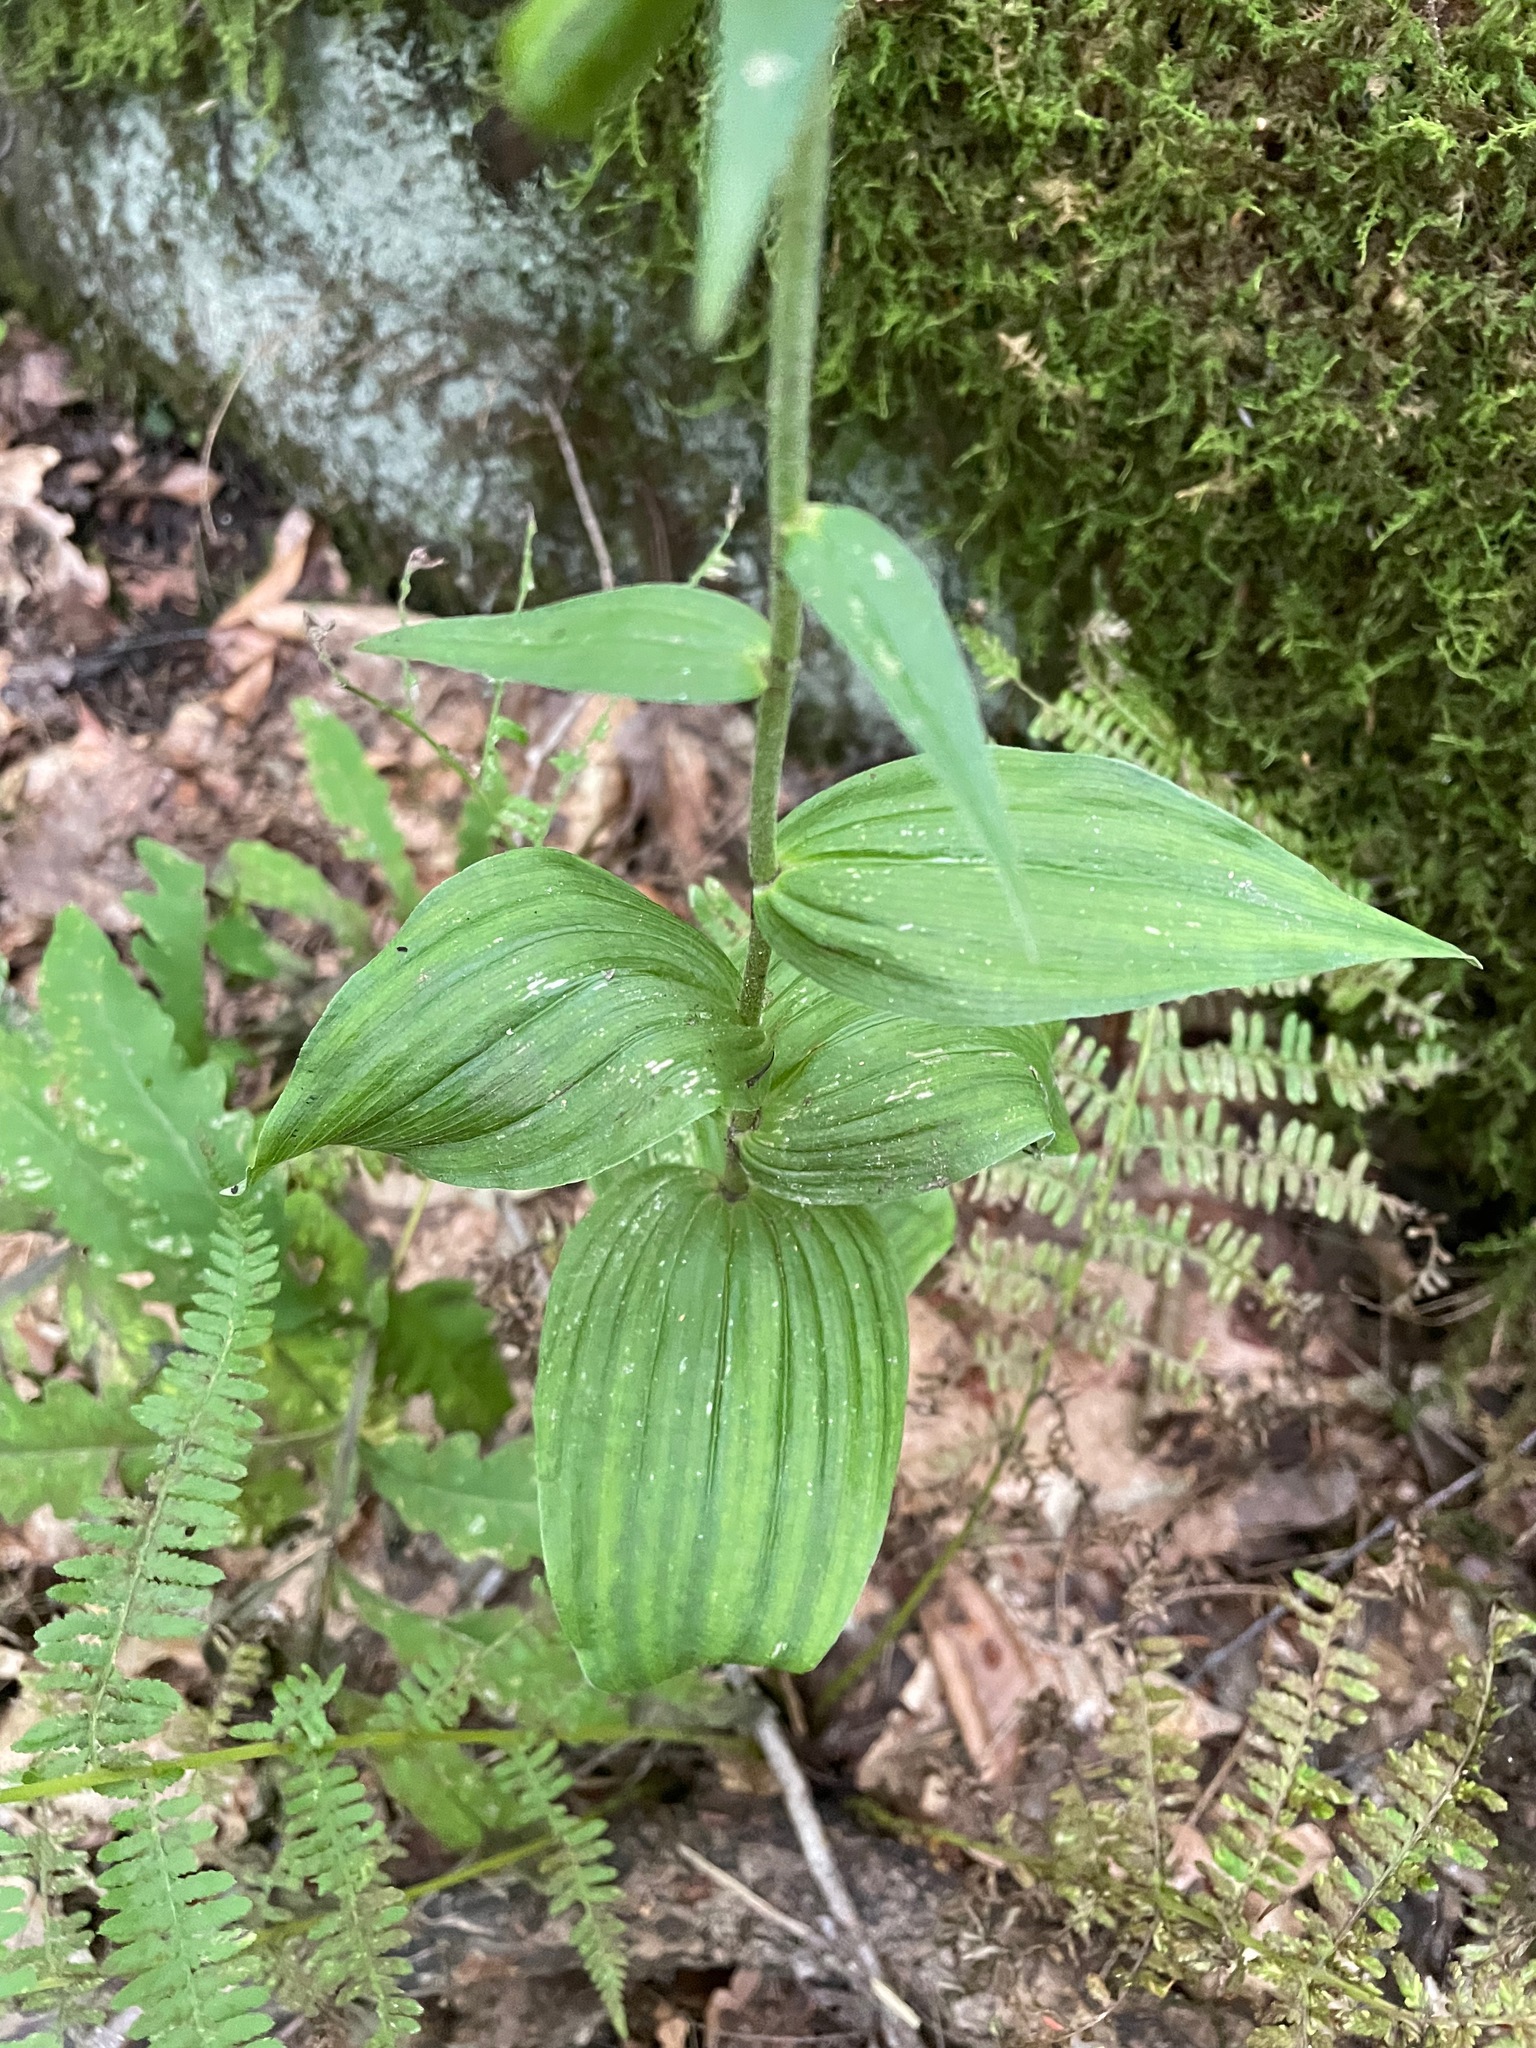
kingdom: Plantae
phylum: Tracheophyta
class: Liliopsida
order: Asparagales
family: Orchidaceae
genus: Epipactis
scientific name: Epipactis helleborine
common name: Broad-leaved helleborine
